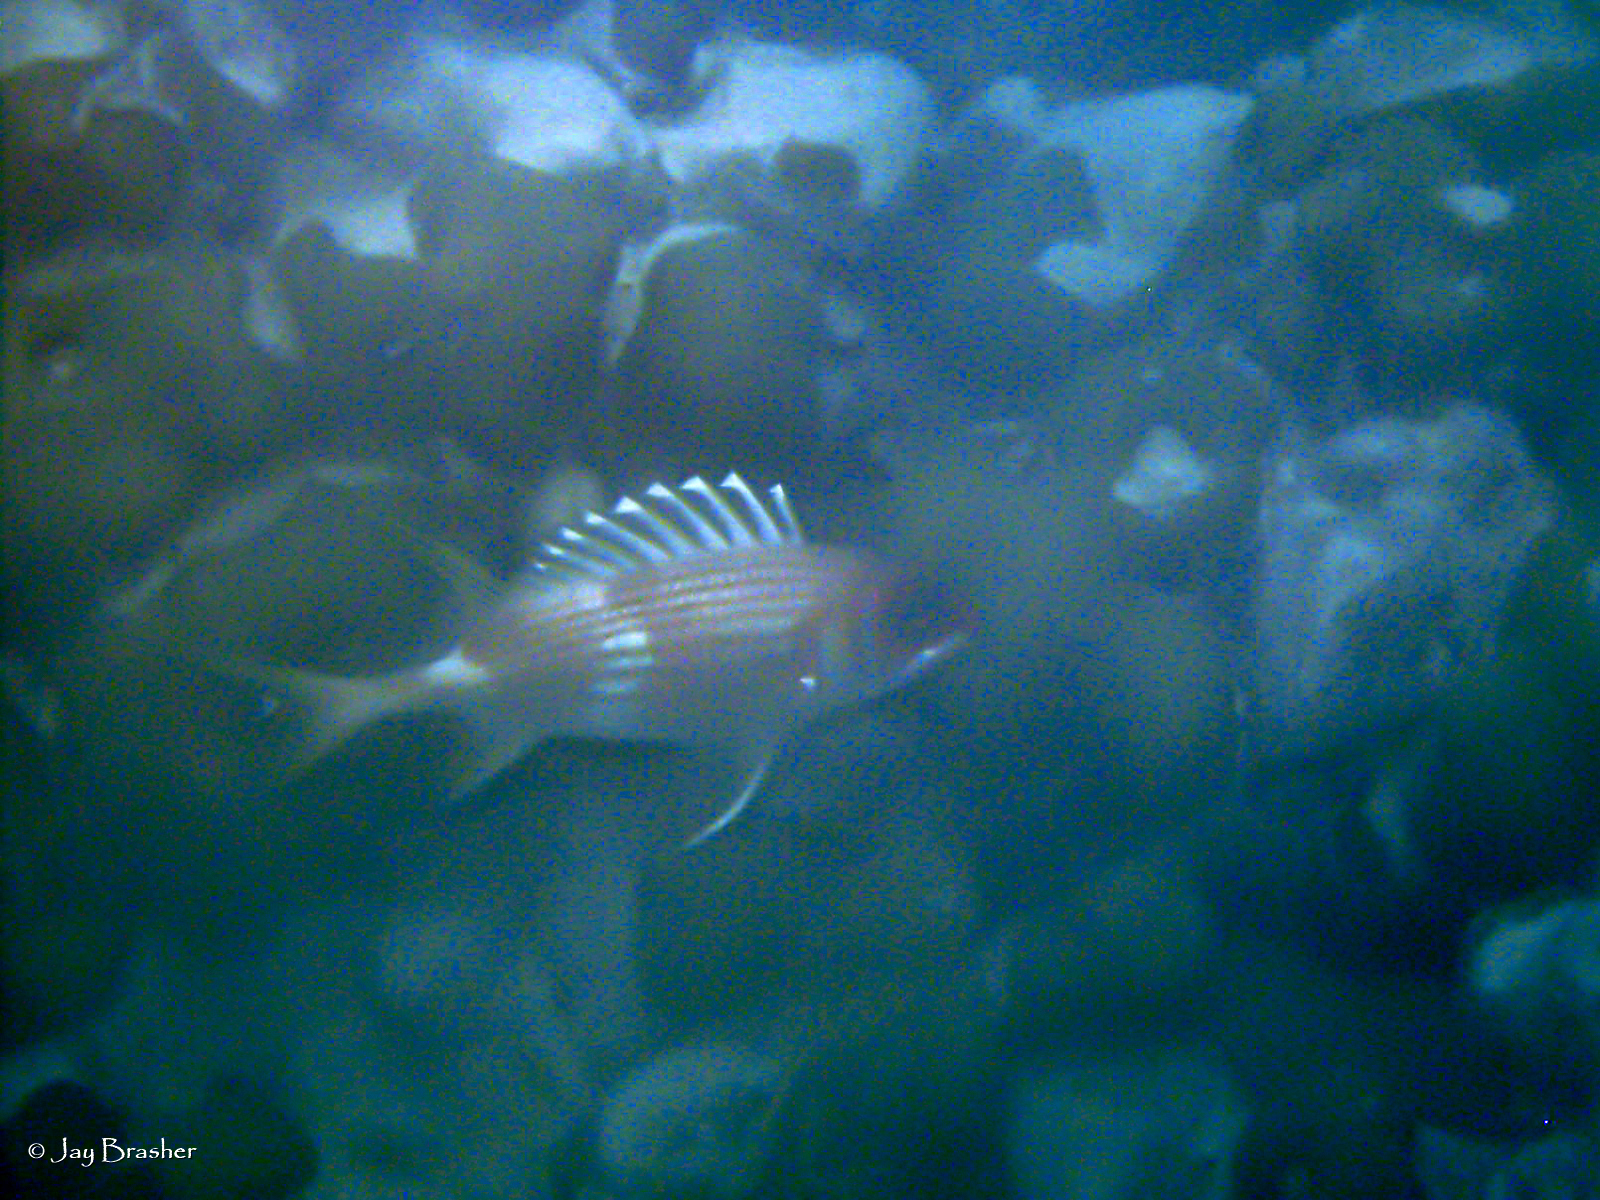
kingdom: Animalia
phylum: Chordata
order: Beryciformes
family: Holocentridae
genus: Holocentrus
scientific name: Holocentrus rufus
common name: Longspine squirrelfish
